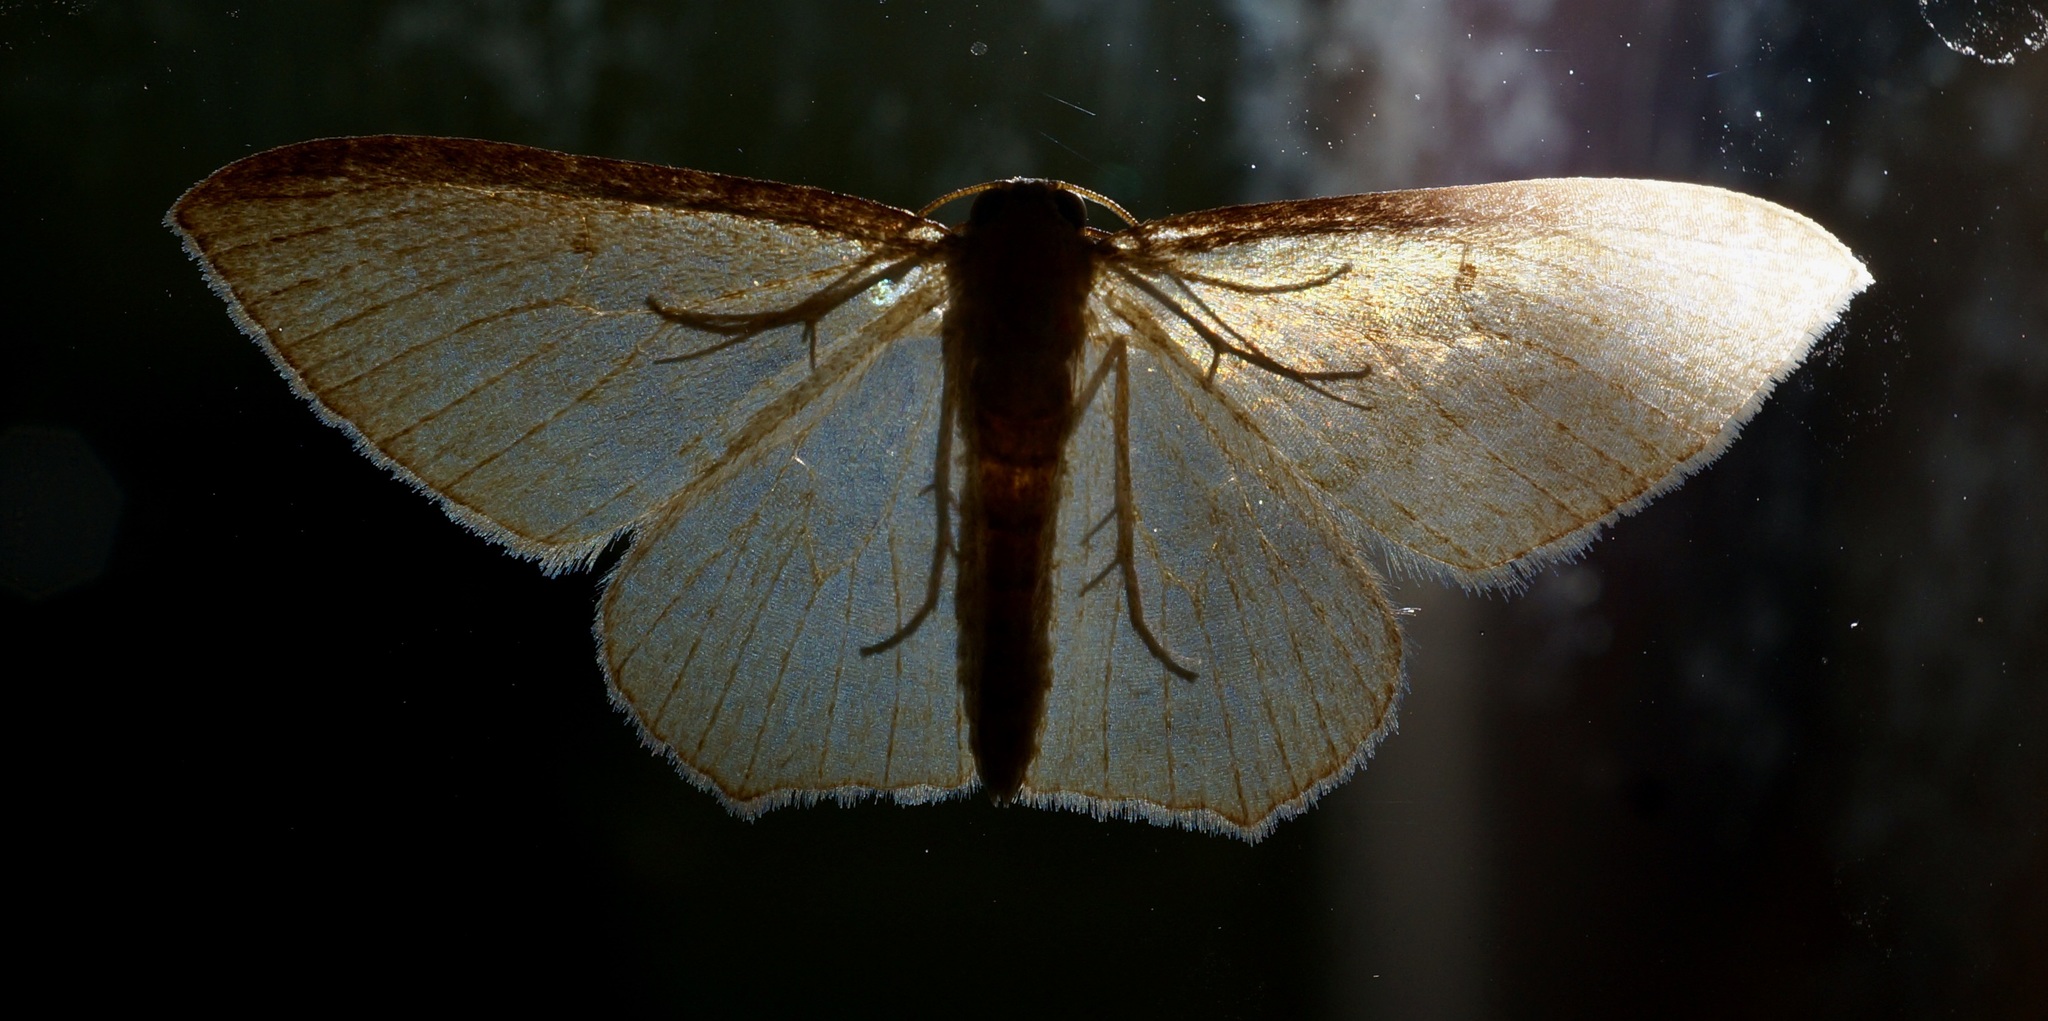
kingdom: Animalia
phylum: Arthropoda
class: Insecta
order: Lepidoptera
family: Geometridae
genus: Poecilasthena
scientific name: Poecilasthena pulchraria
